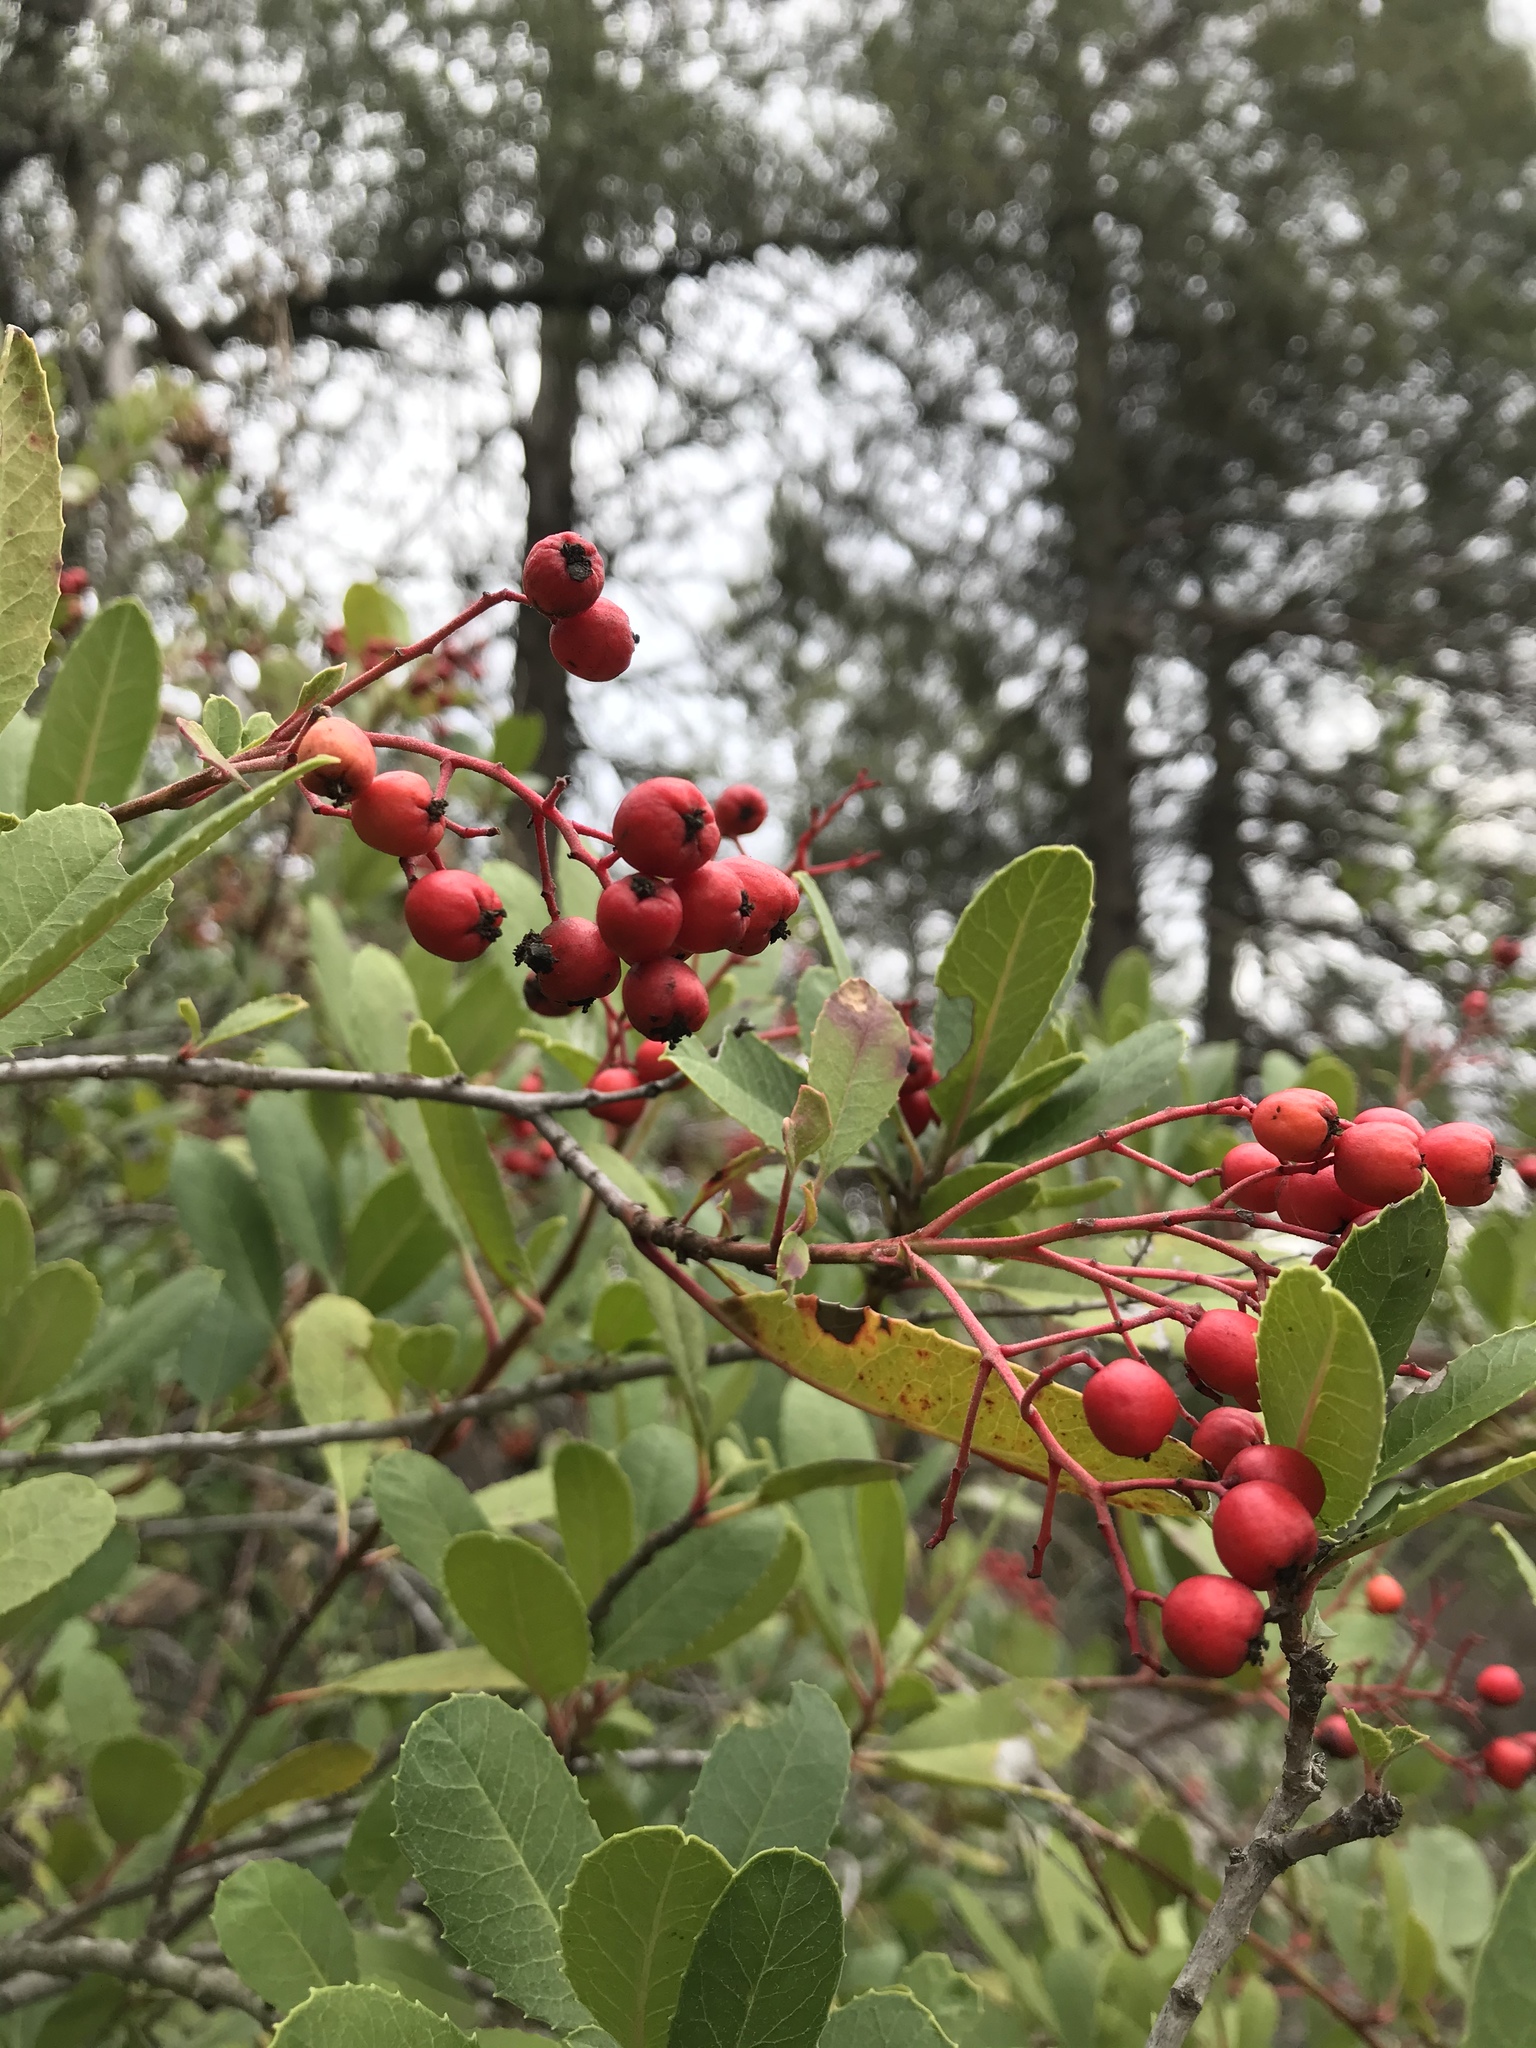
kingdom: Plantae
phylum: Tracheophyta
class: Magnoliopsida
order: Rosales
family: Rosaceae
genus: Heteromeles
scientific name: Heteromeles arbutifolia
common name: California-holly
